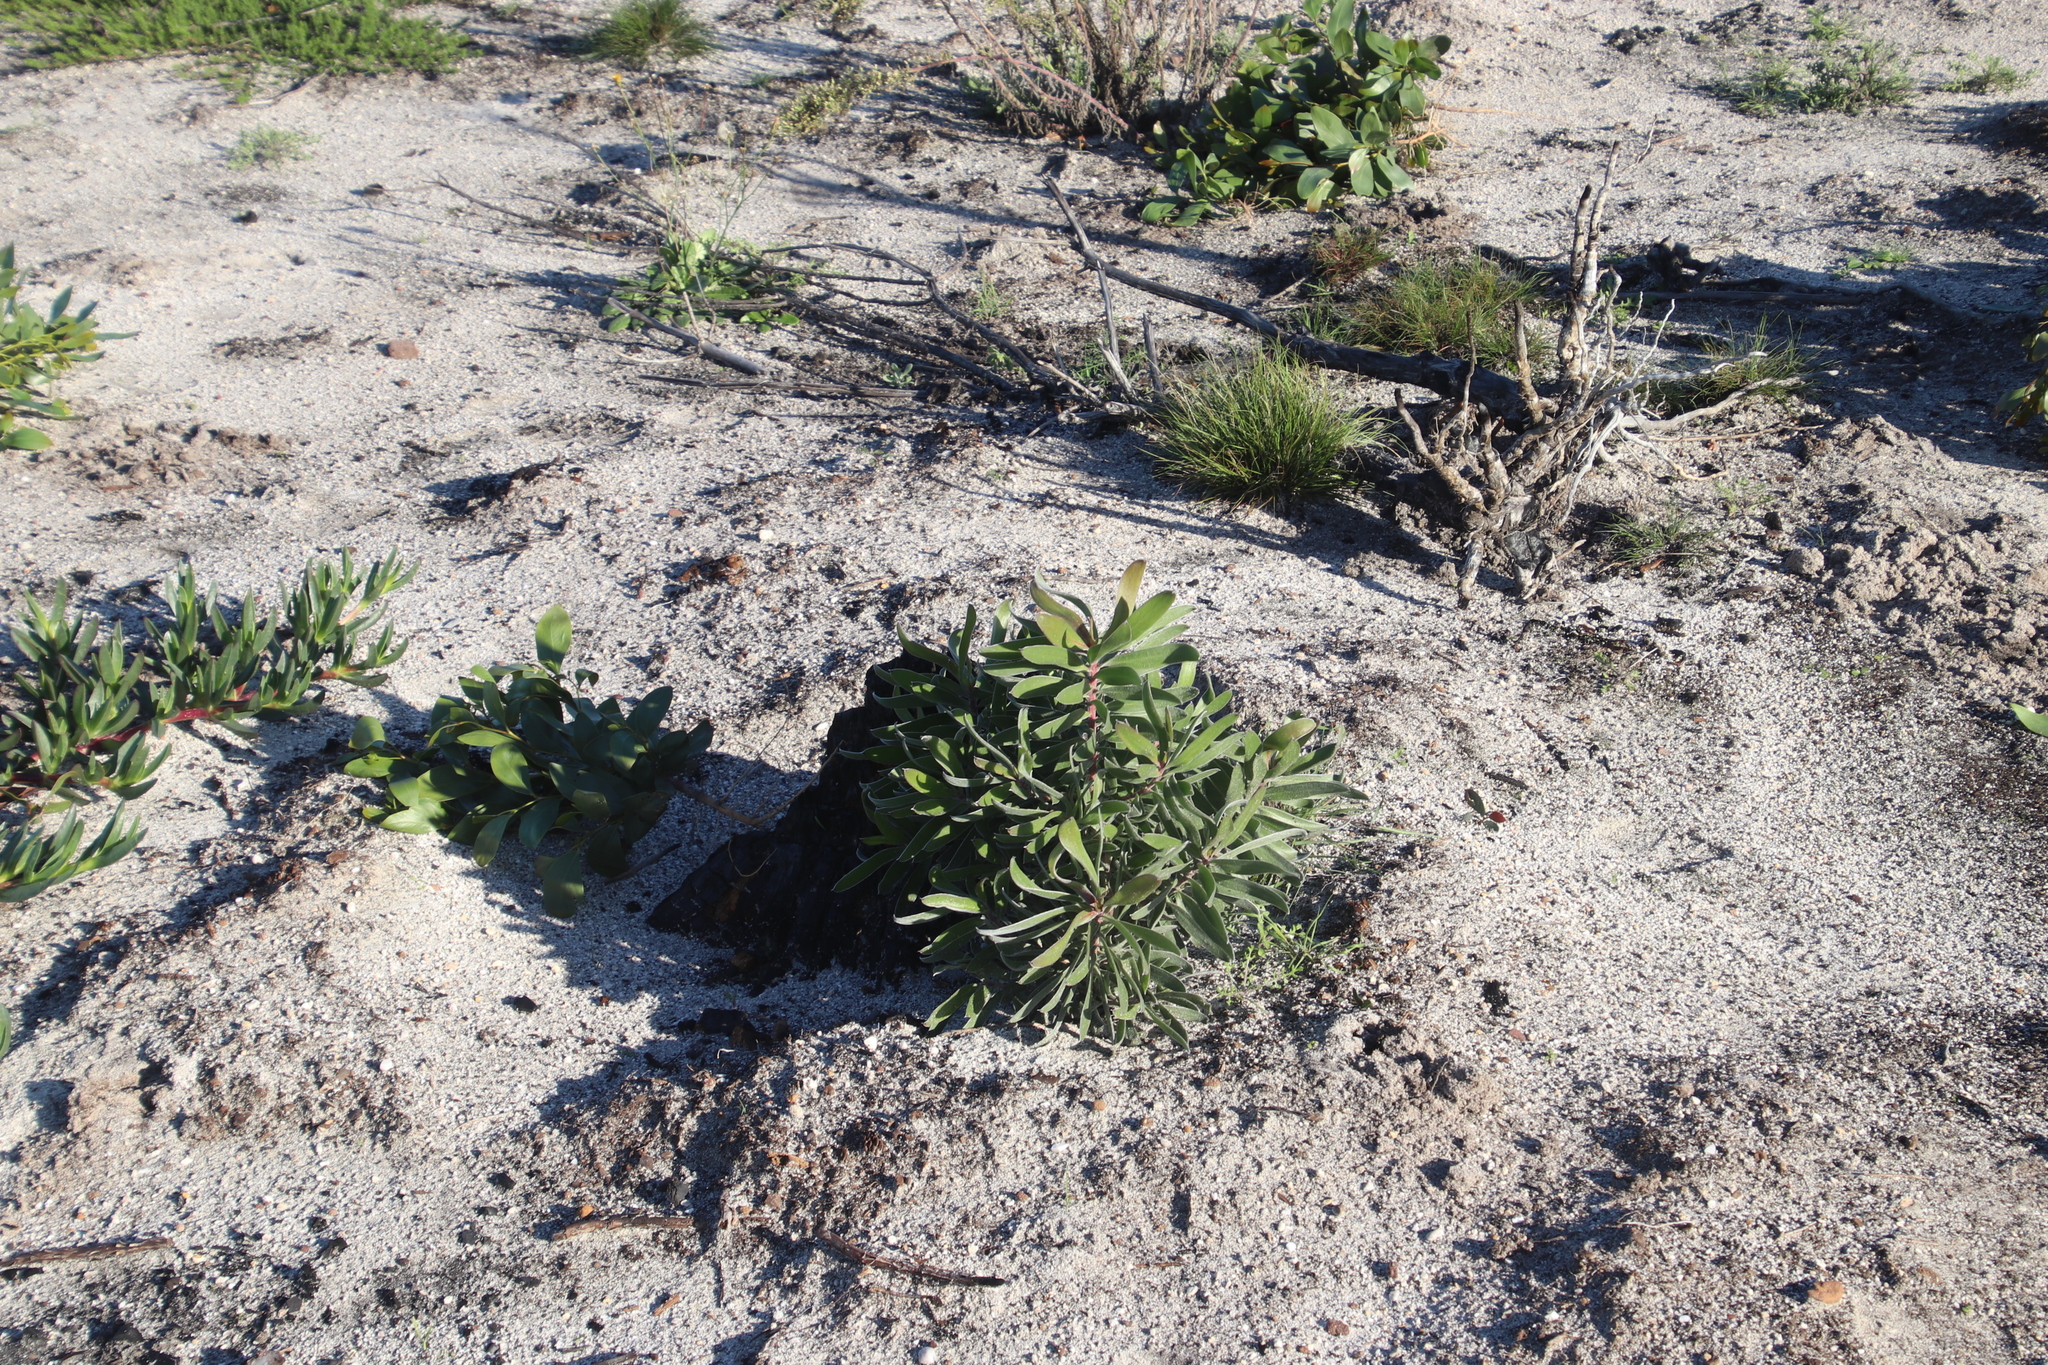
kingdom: Plantae
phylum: Tracheophyta
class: Magnoliopsida
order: Proteales
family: Proteaceae
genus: Leucadendron
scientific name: Leucadendron laureolum
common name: Golden sunshinebush
